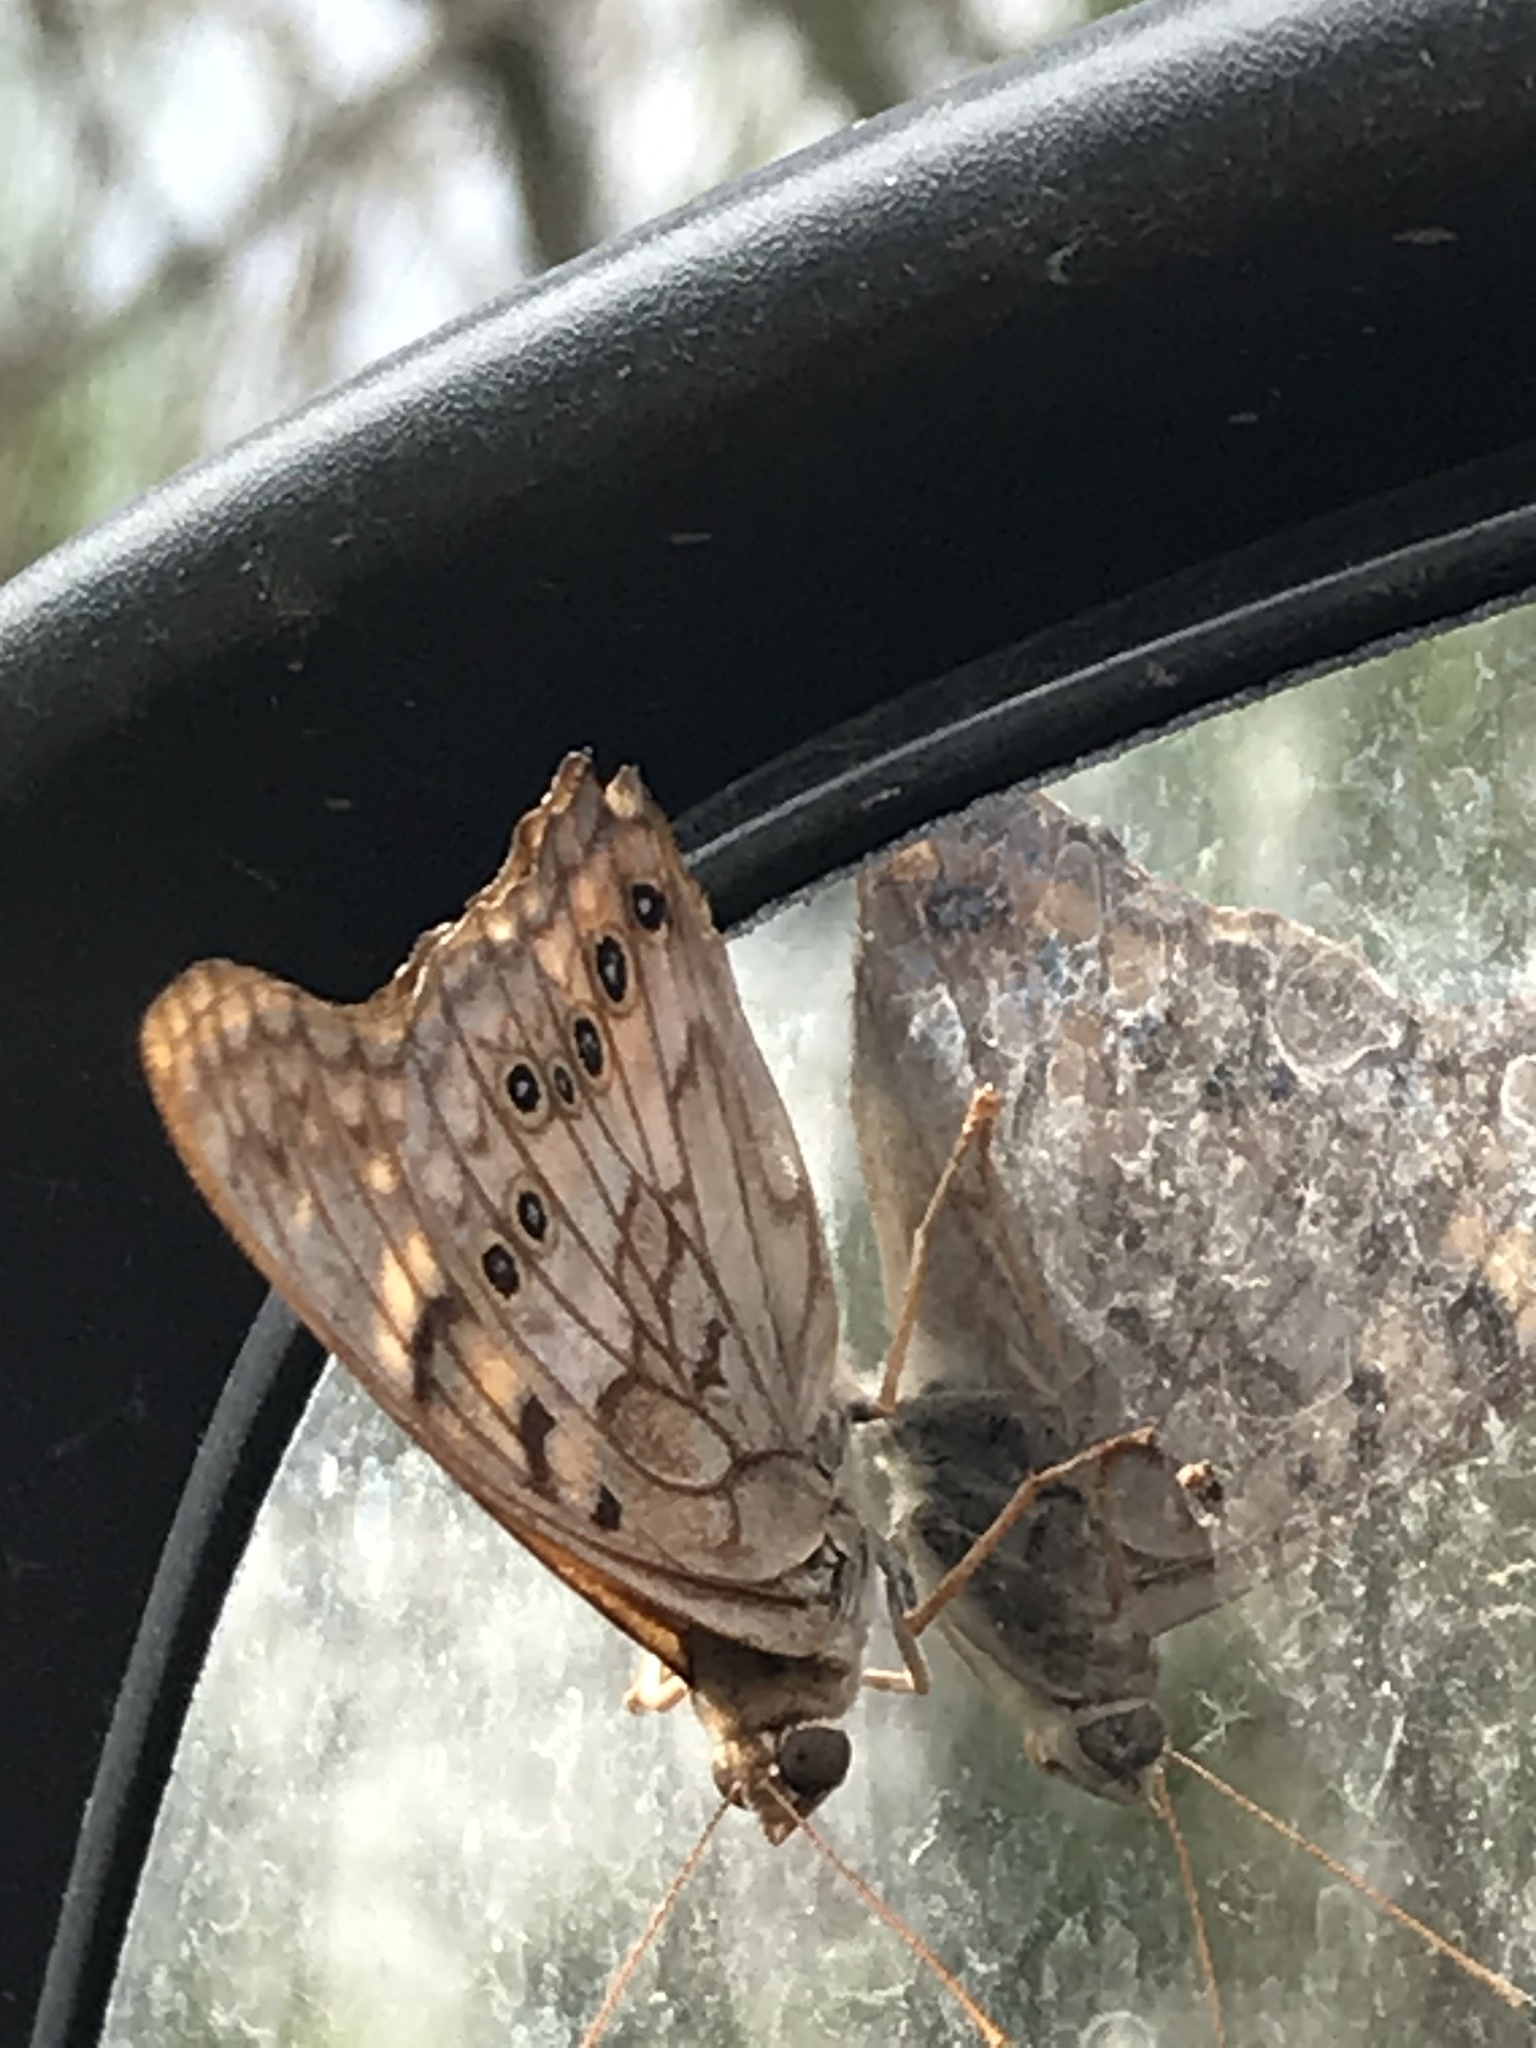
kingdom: Animalia
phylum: Arthropoda
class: Insecta
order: Lepidoptera
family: Nymphalidae
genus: Asterocampa
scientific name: Asterocampa clyton
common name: Tawny emperor
